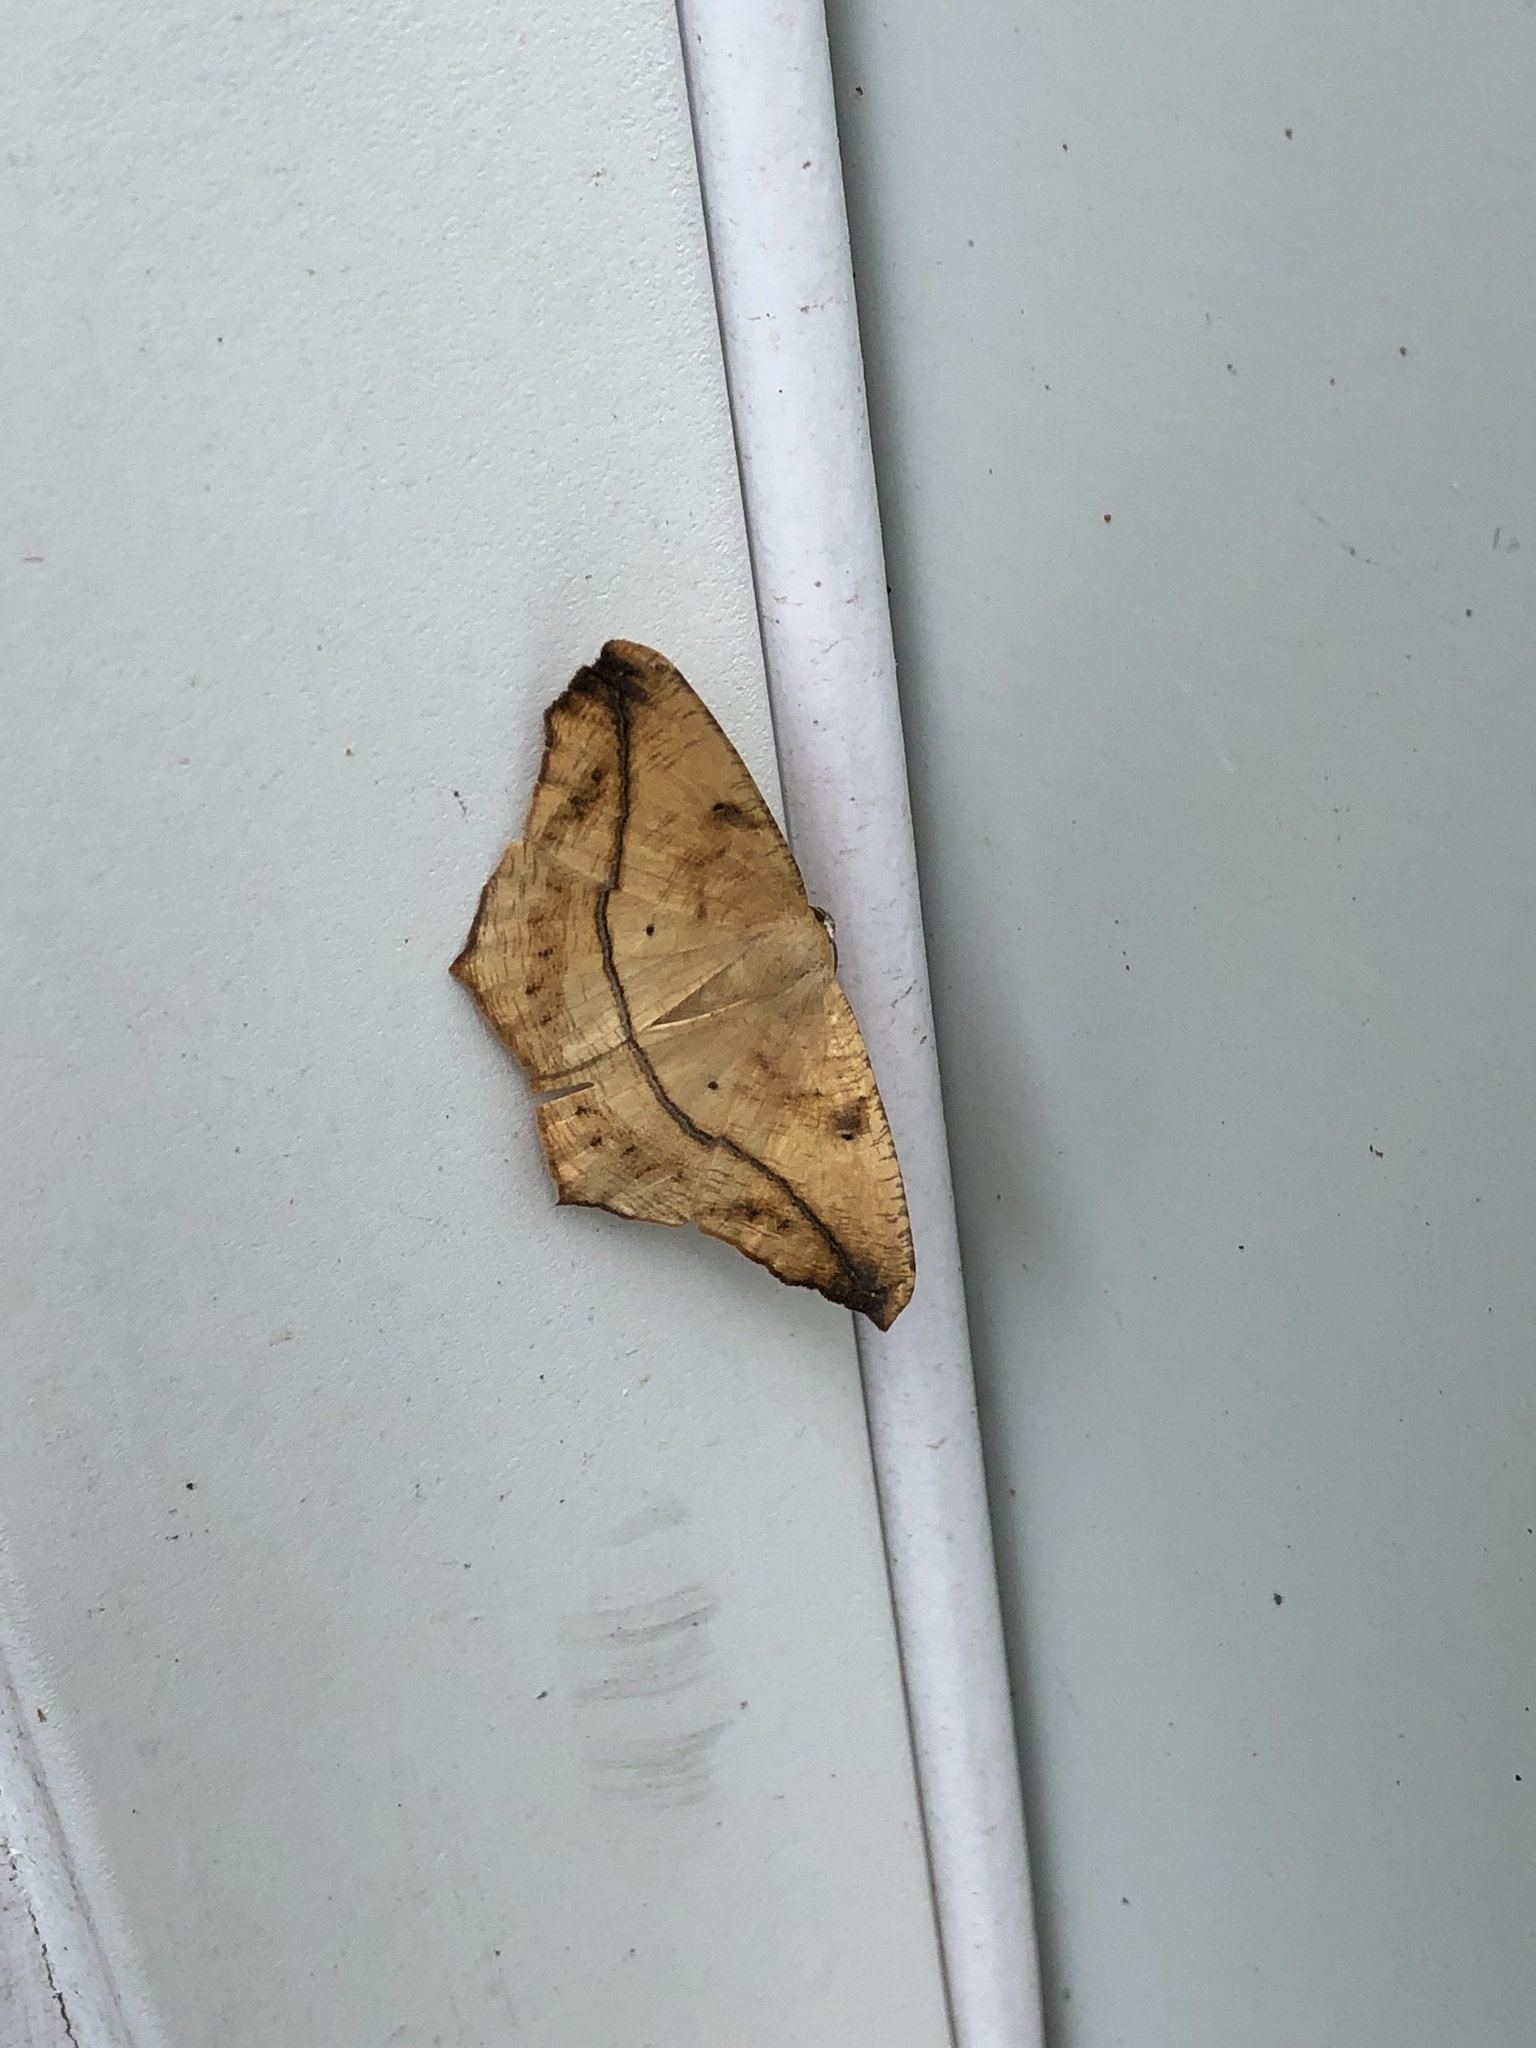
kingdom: Animalia
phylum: Arthropoda
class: Insecta
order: Lepidoptera
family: Geometridae
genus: Prochoerodes
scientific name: Prochoerodes lineola
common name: Large maple spanworm
